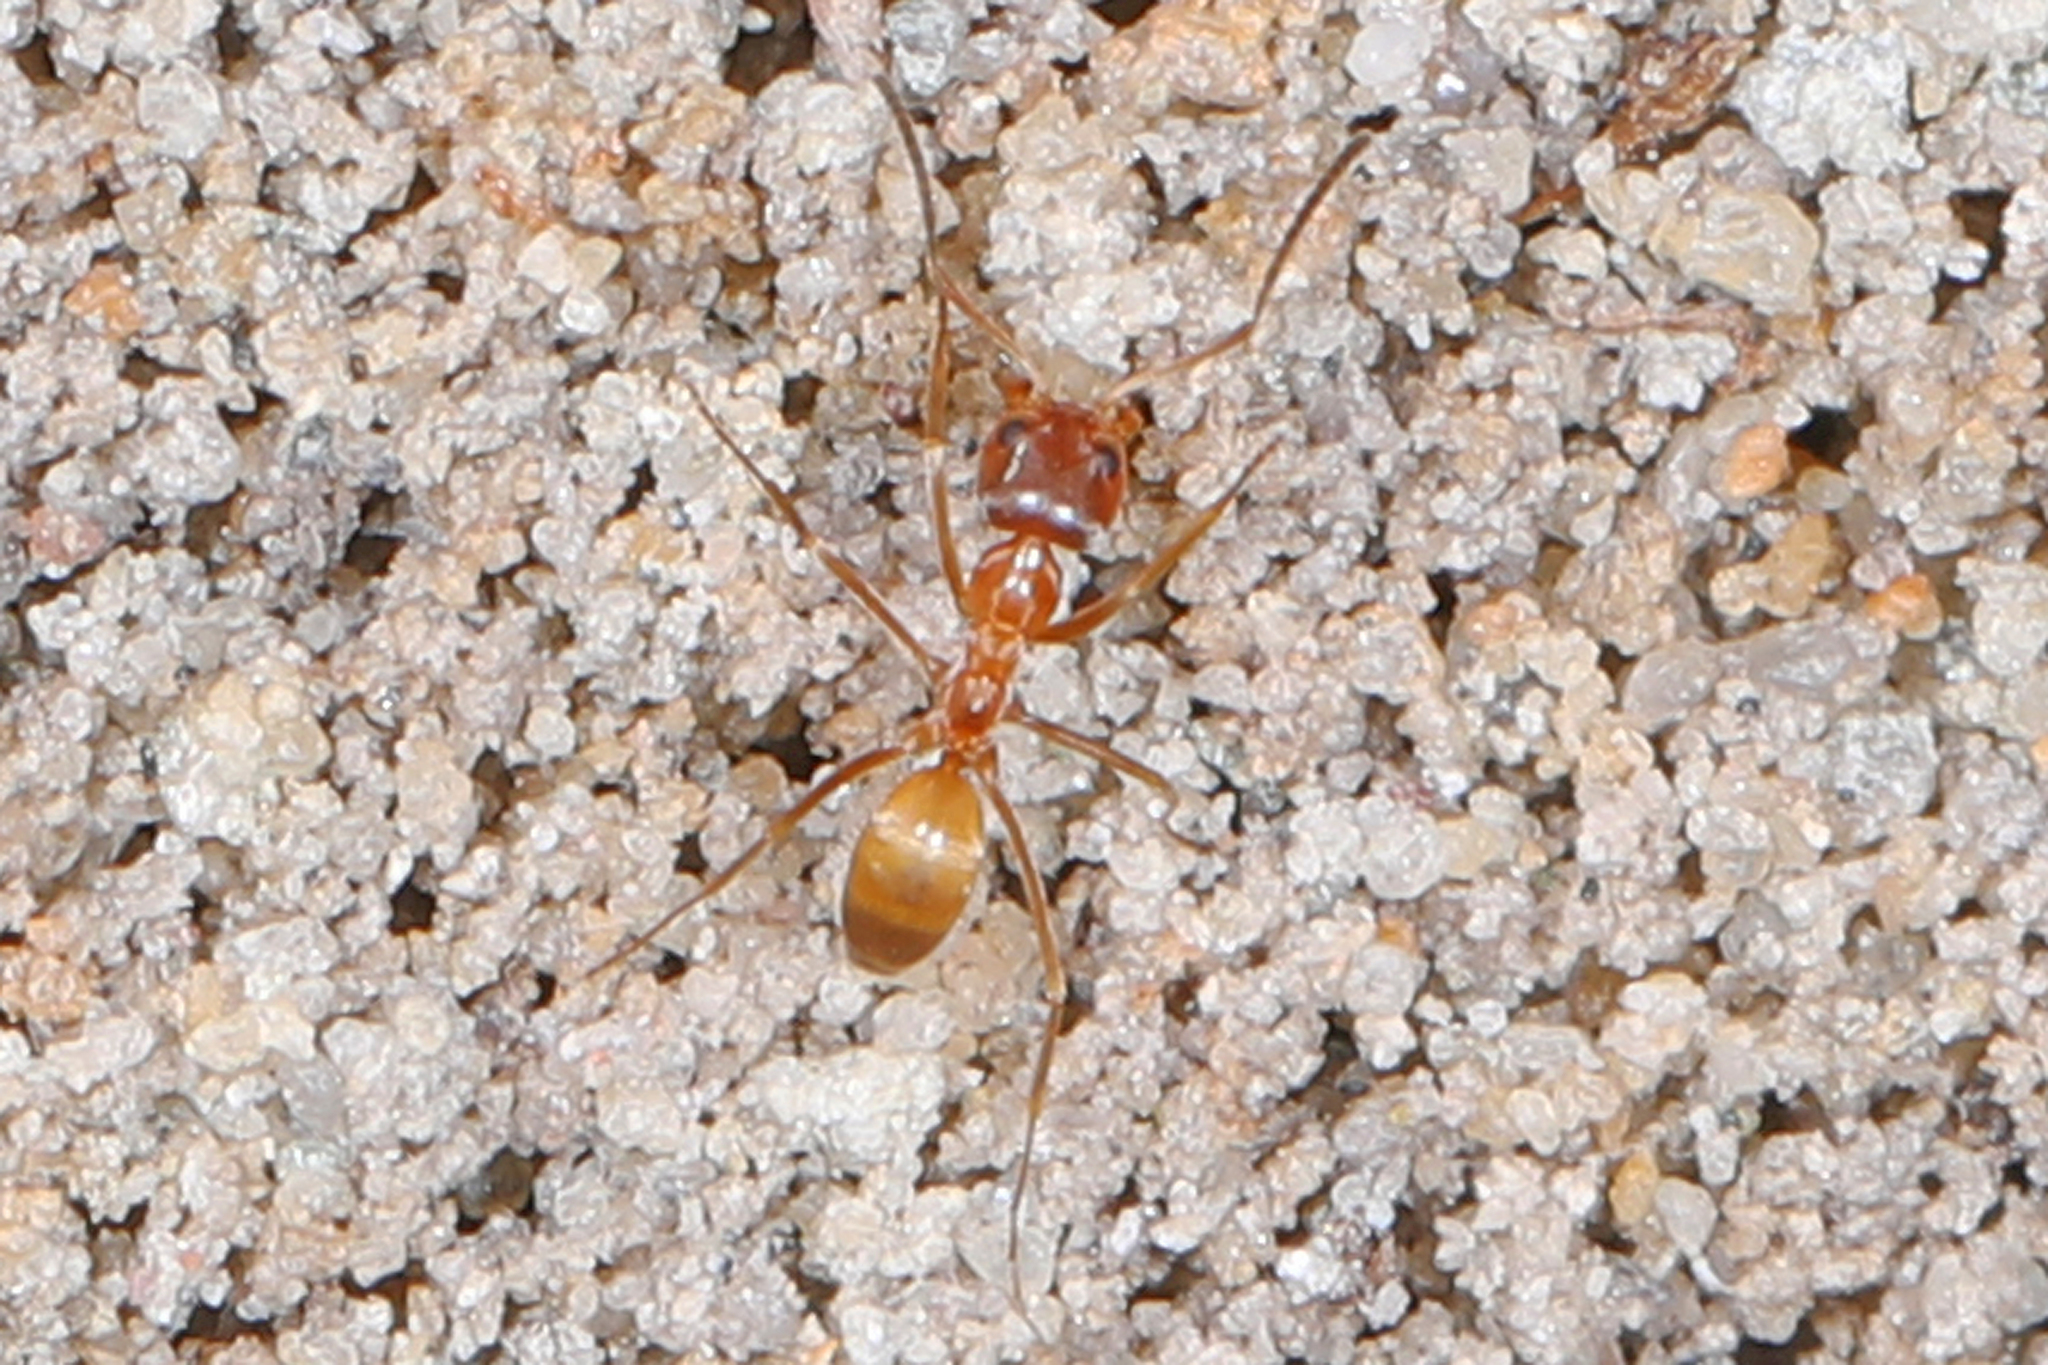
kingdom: Animalia
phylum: Arthropoda
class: Insecta
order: Hymenoptera
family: Formicidae
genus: Dorymyrmex
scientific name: Dorymyrmex bureni
